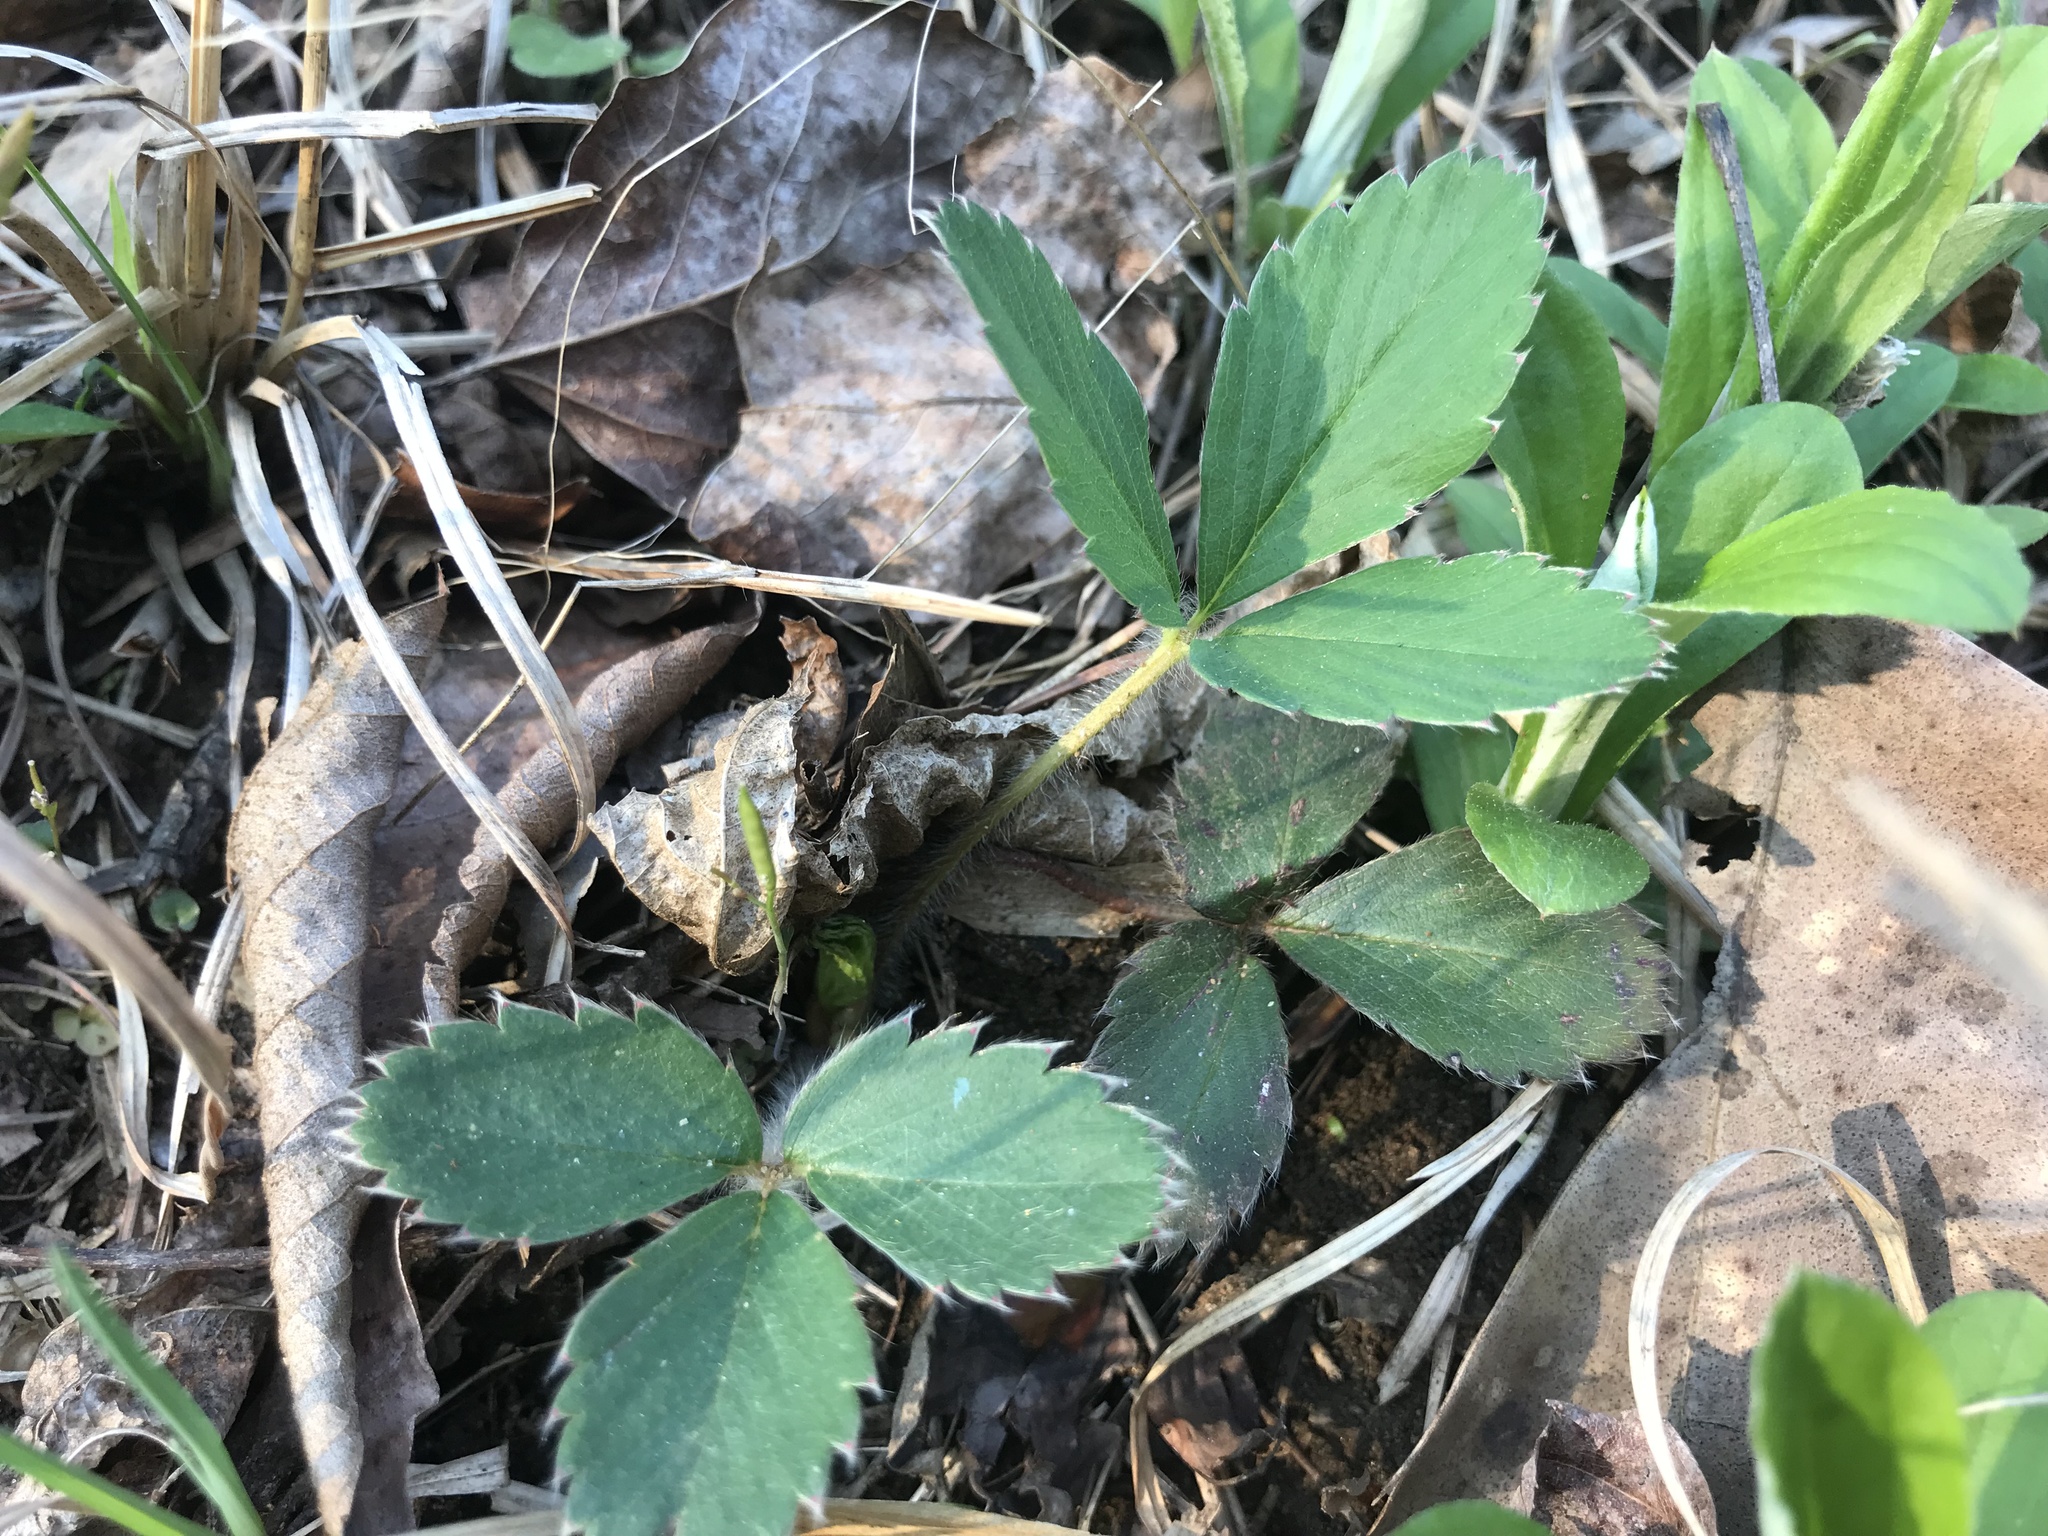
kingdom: Plantae
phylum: Tracheophyta
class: Magnoliopsida
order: Rosales
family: Rosaceae
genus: Fragaria
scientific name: Fragaria virginiana
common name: Thickleaved wild strawberry
